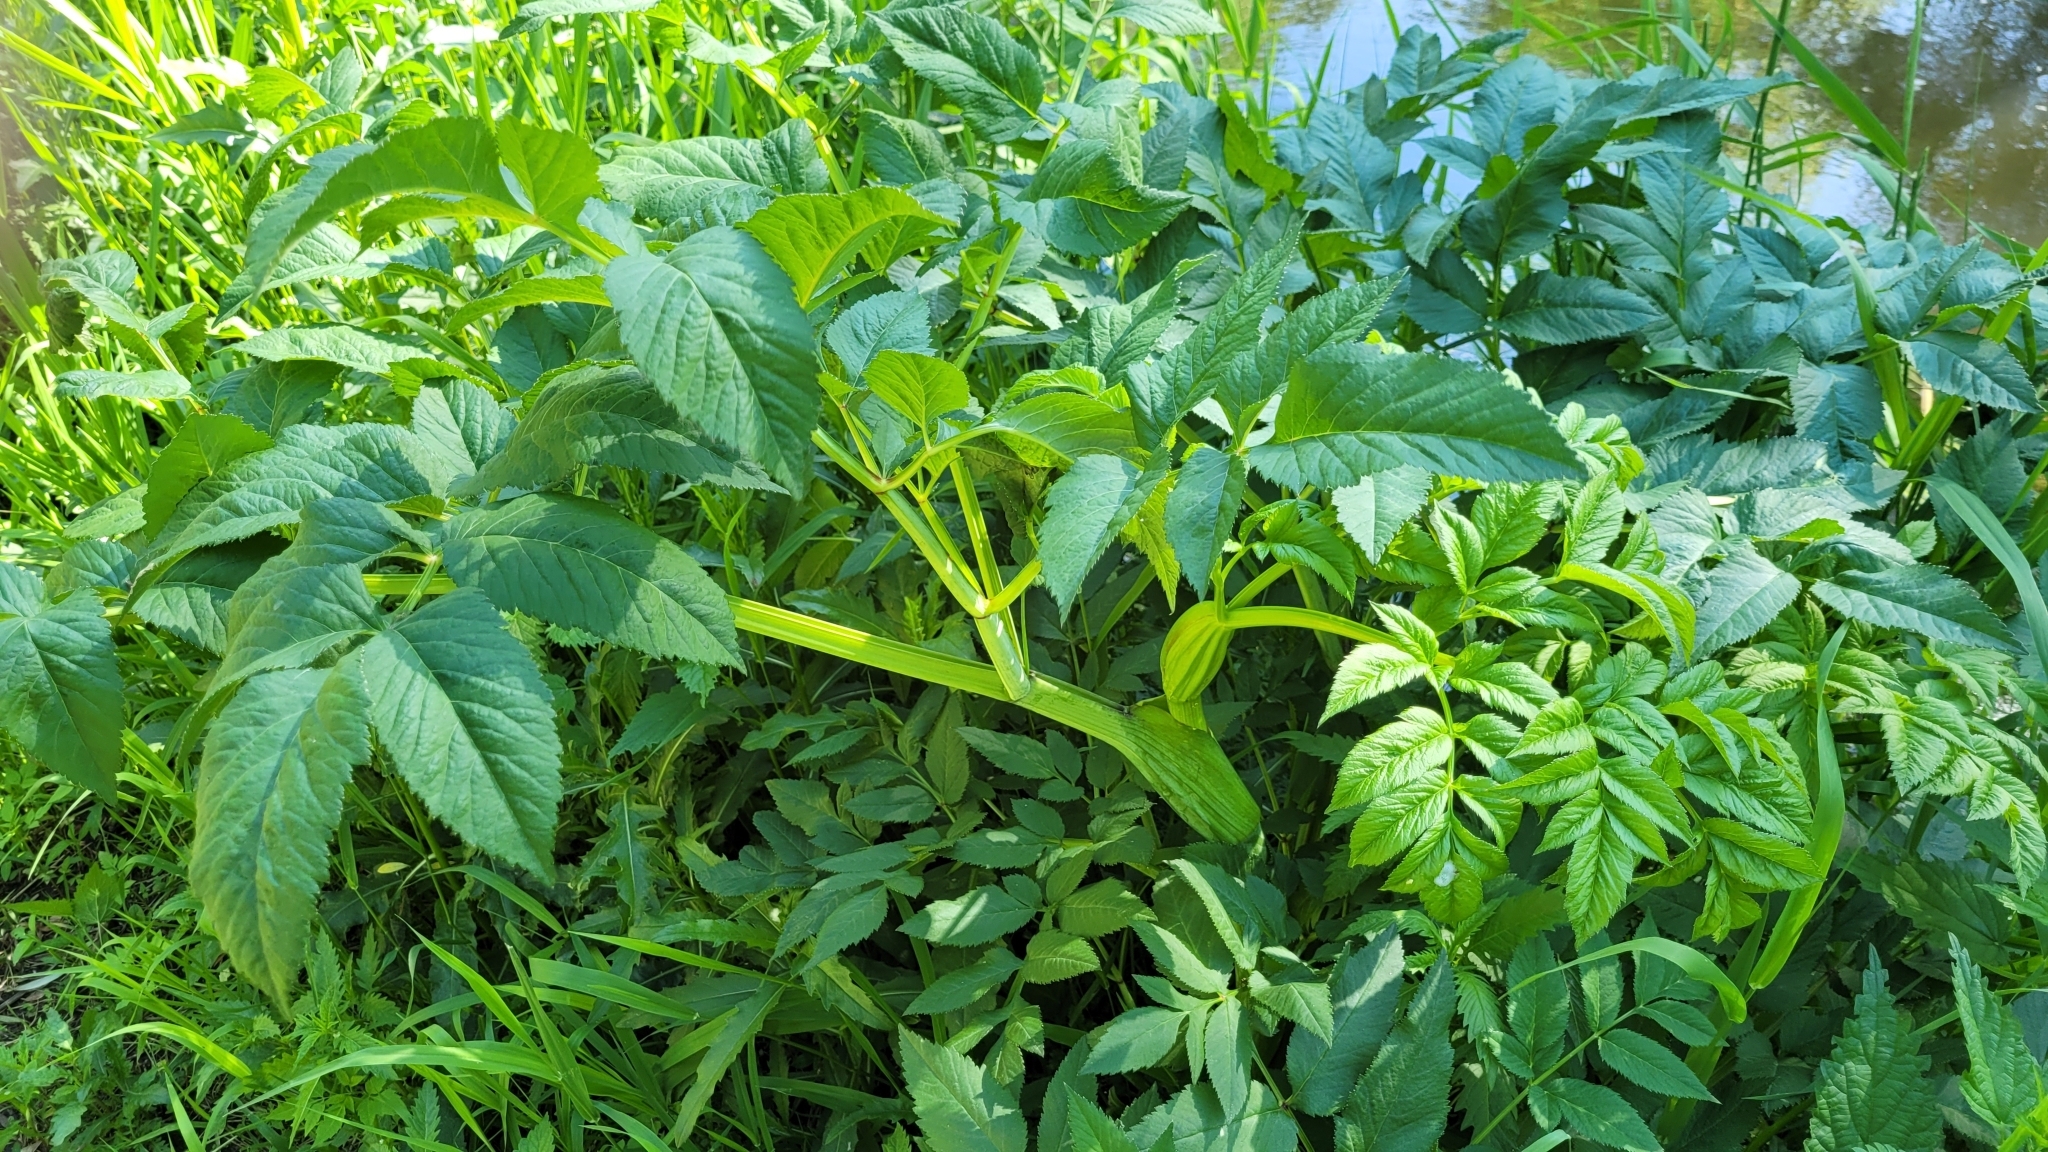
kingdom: Plantae
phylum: Tracheophyta
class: Magnoliopsida
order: Apiales
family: Apiaceae
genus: Angelica
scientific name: Angelica sylvestris
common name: Wild angelica
